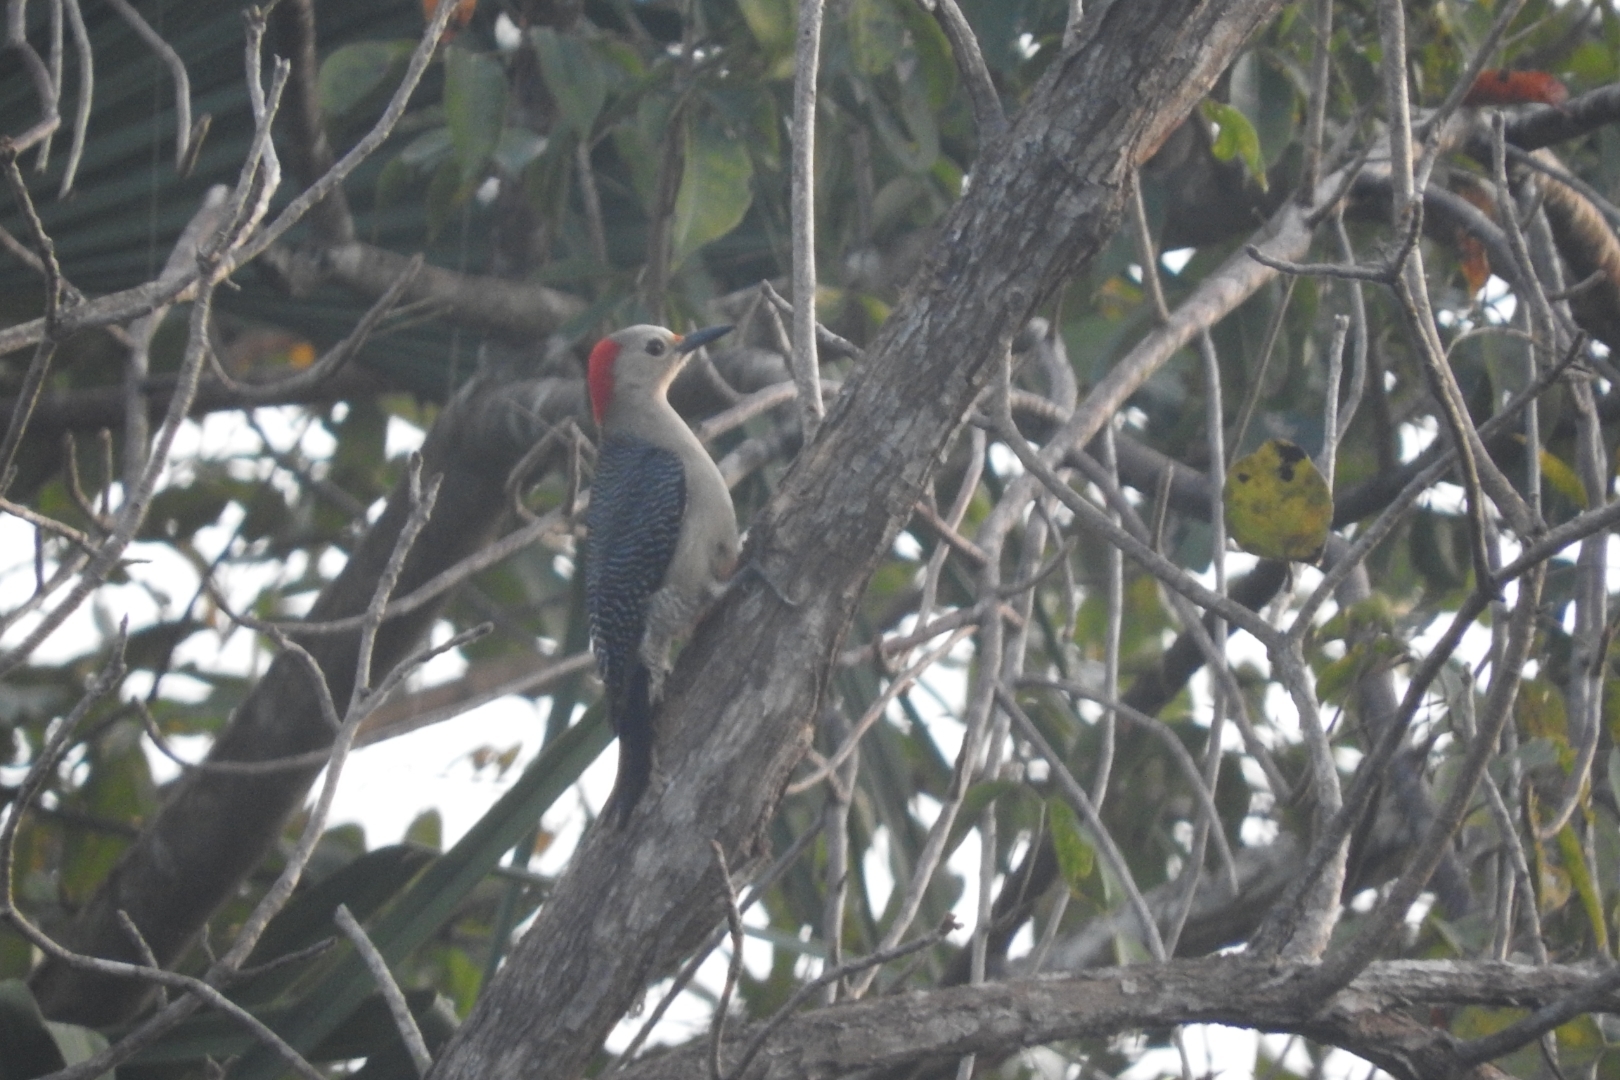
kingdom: Animalia
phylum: Chordata
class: Aves
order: Piciformes
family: Picidae
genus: Melanerpes
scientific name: Melanerpes aurifrons
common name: Golden-fronted woodpecker
